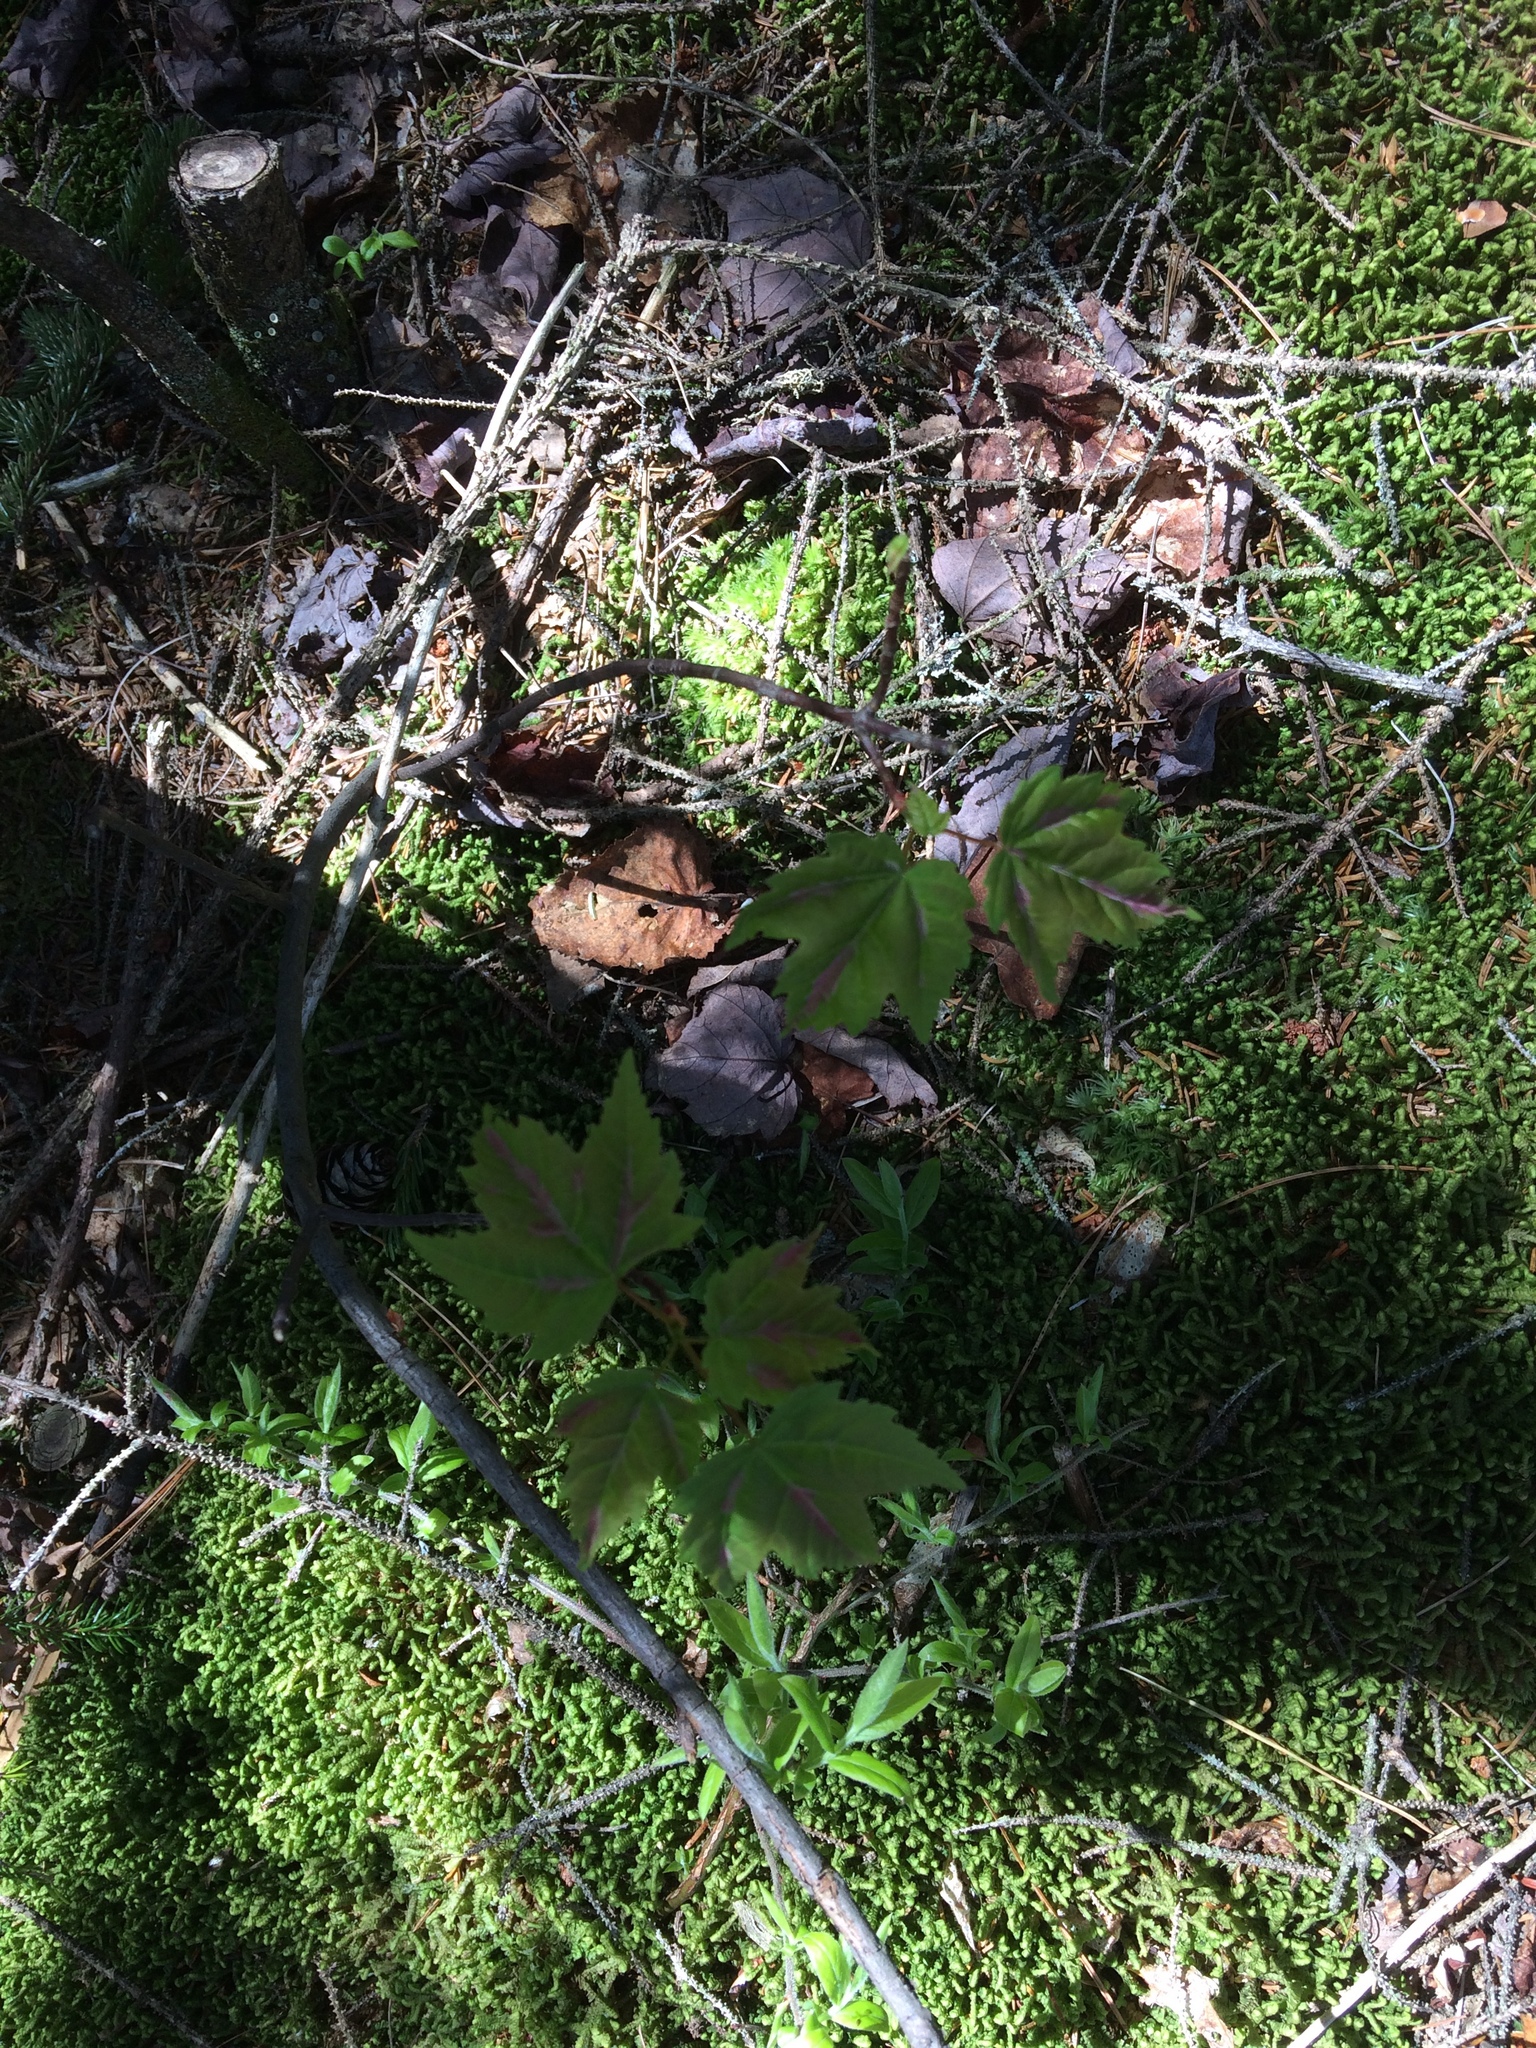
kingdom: Plantae
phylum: Tracheophyta
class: Magnoliopsida
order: Sapindales
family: Sapindaceae
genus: Acer
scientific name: Acer rubrum
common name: Red maple
